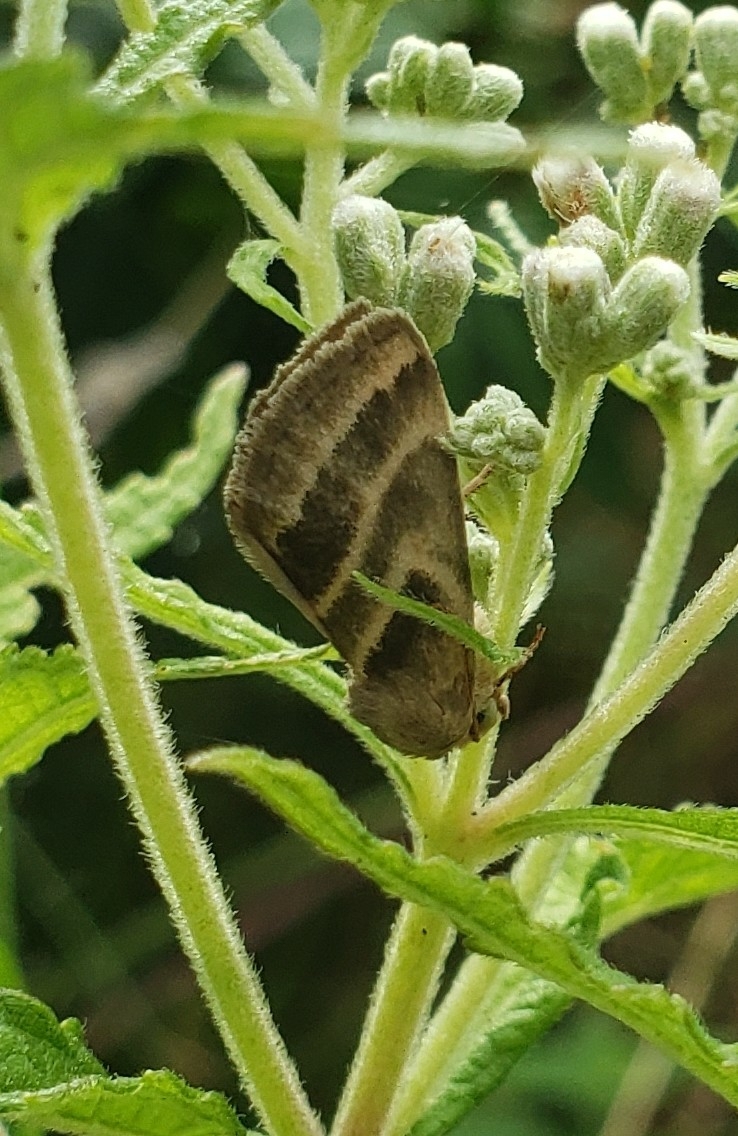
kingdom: Animalia
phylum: Arthropoda
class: Insecta
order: Lepidoptera
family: Noctuidae
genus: Schinia
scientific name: Schinia trifascia
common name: Three-lined flower moth
